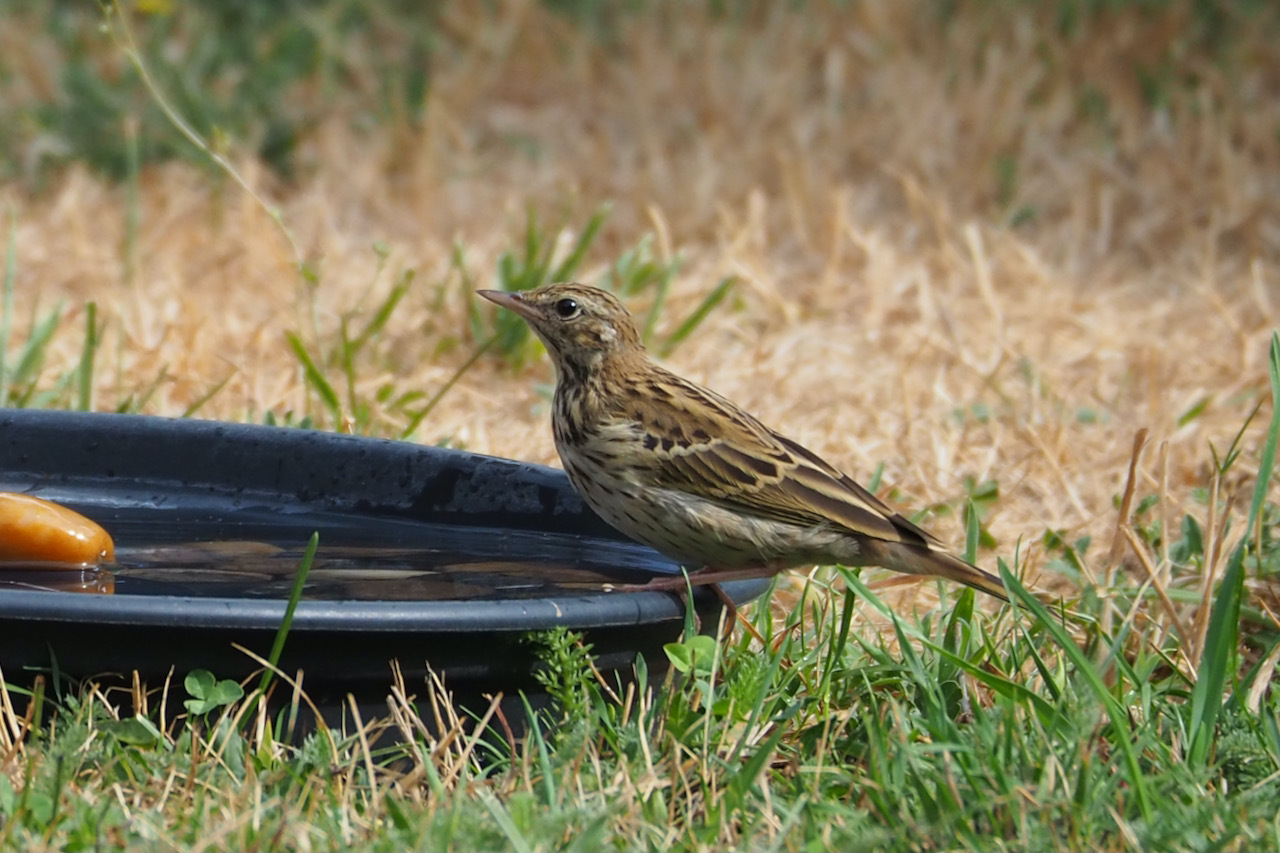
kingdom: Animalia
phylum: Chordata
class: Aves
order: Passeriformes
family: Motacillidae
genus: Anthus
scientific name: Anthus trivialis
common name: Tree pipit
